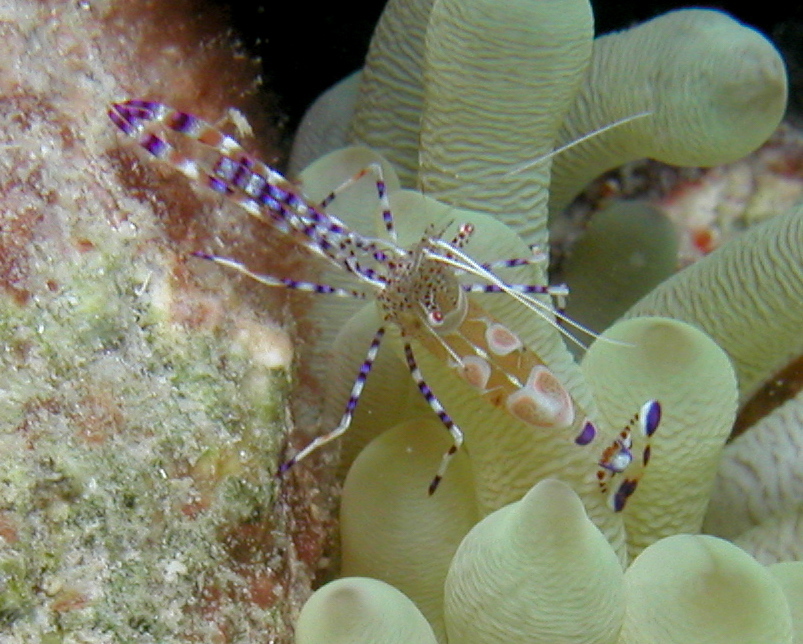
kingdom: Animalia
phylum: Arthropoda
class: Malacostraca
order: Decapoda
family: Palaemonidae
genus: Periclimenes
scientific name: Periclimenes yucatanicus
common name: Spotted cleaning shrimp
